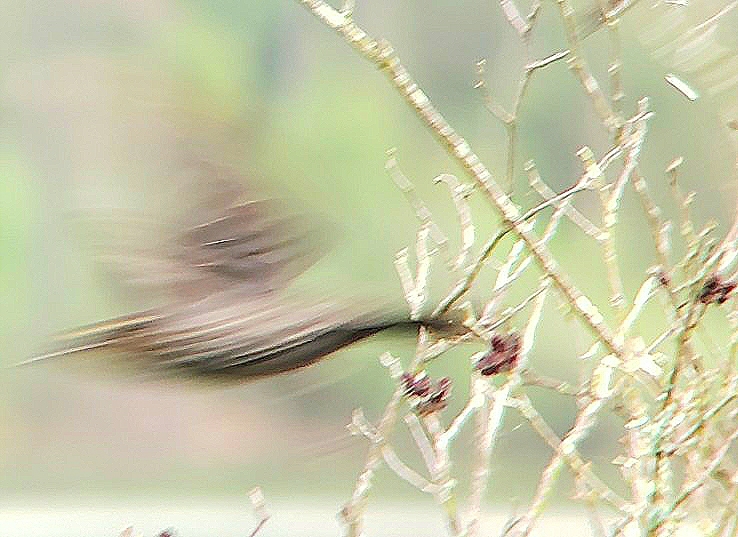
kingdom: Animalia
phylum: Chordata
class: Aves
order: Passeriformes
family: Icteridae
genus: Agelaius
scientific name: Agelaius phoeniceus
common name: Red-winged blackbird
